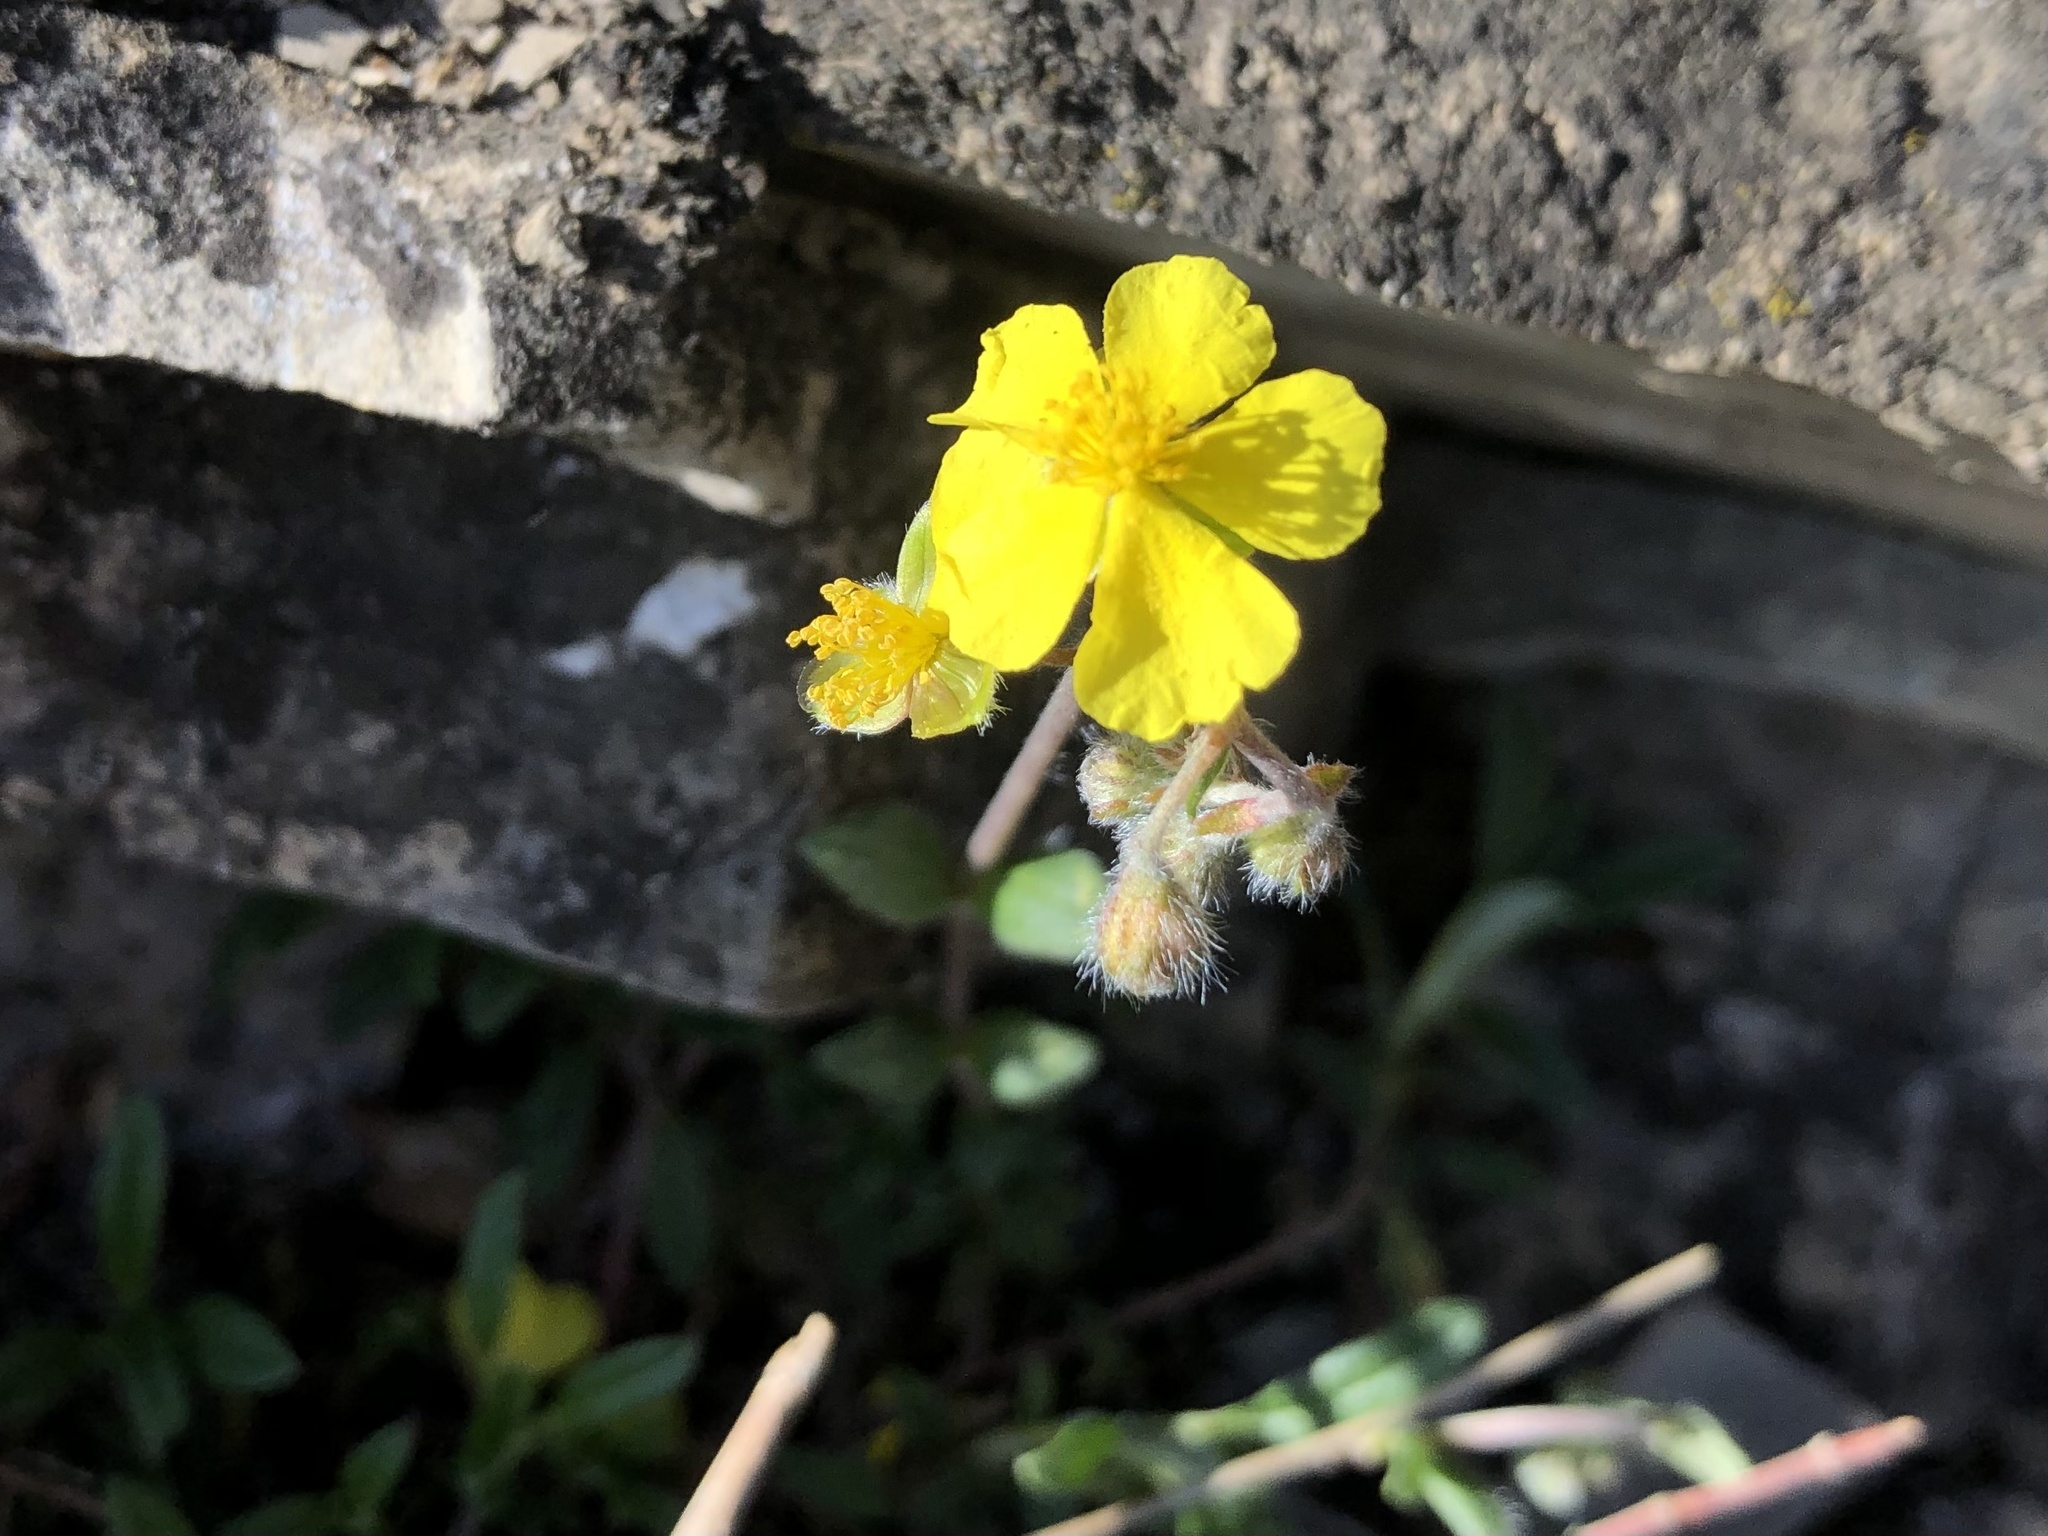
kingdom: Plantae
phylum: Tracheophyta
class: Magnoliopsida
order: Malvales
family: Cistaceae
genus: Helianthemum
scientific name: Helianthemum canum
